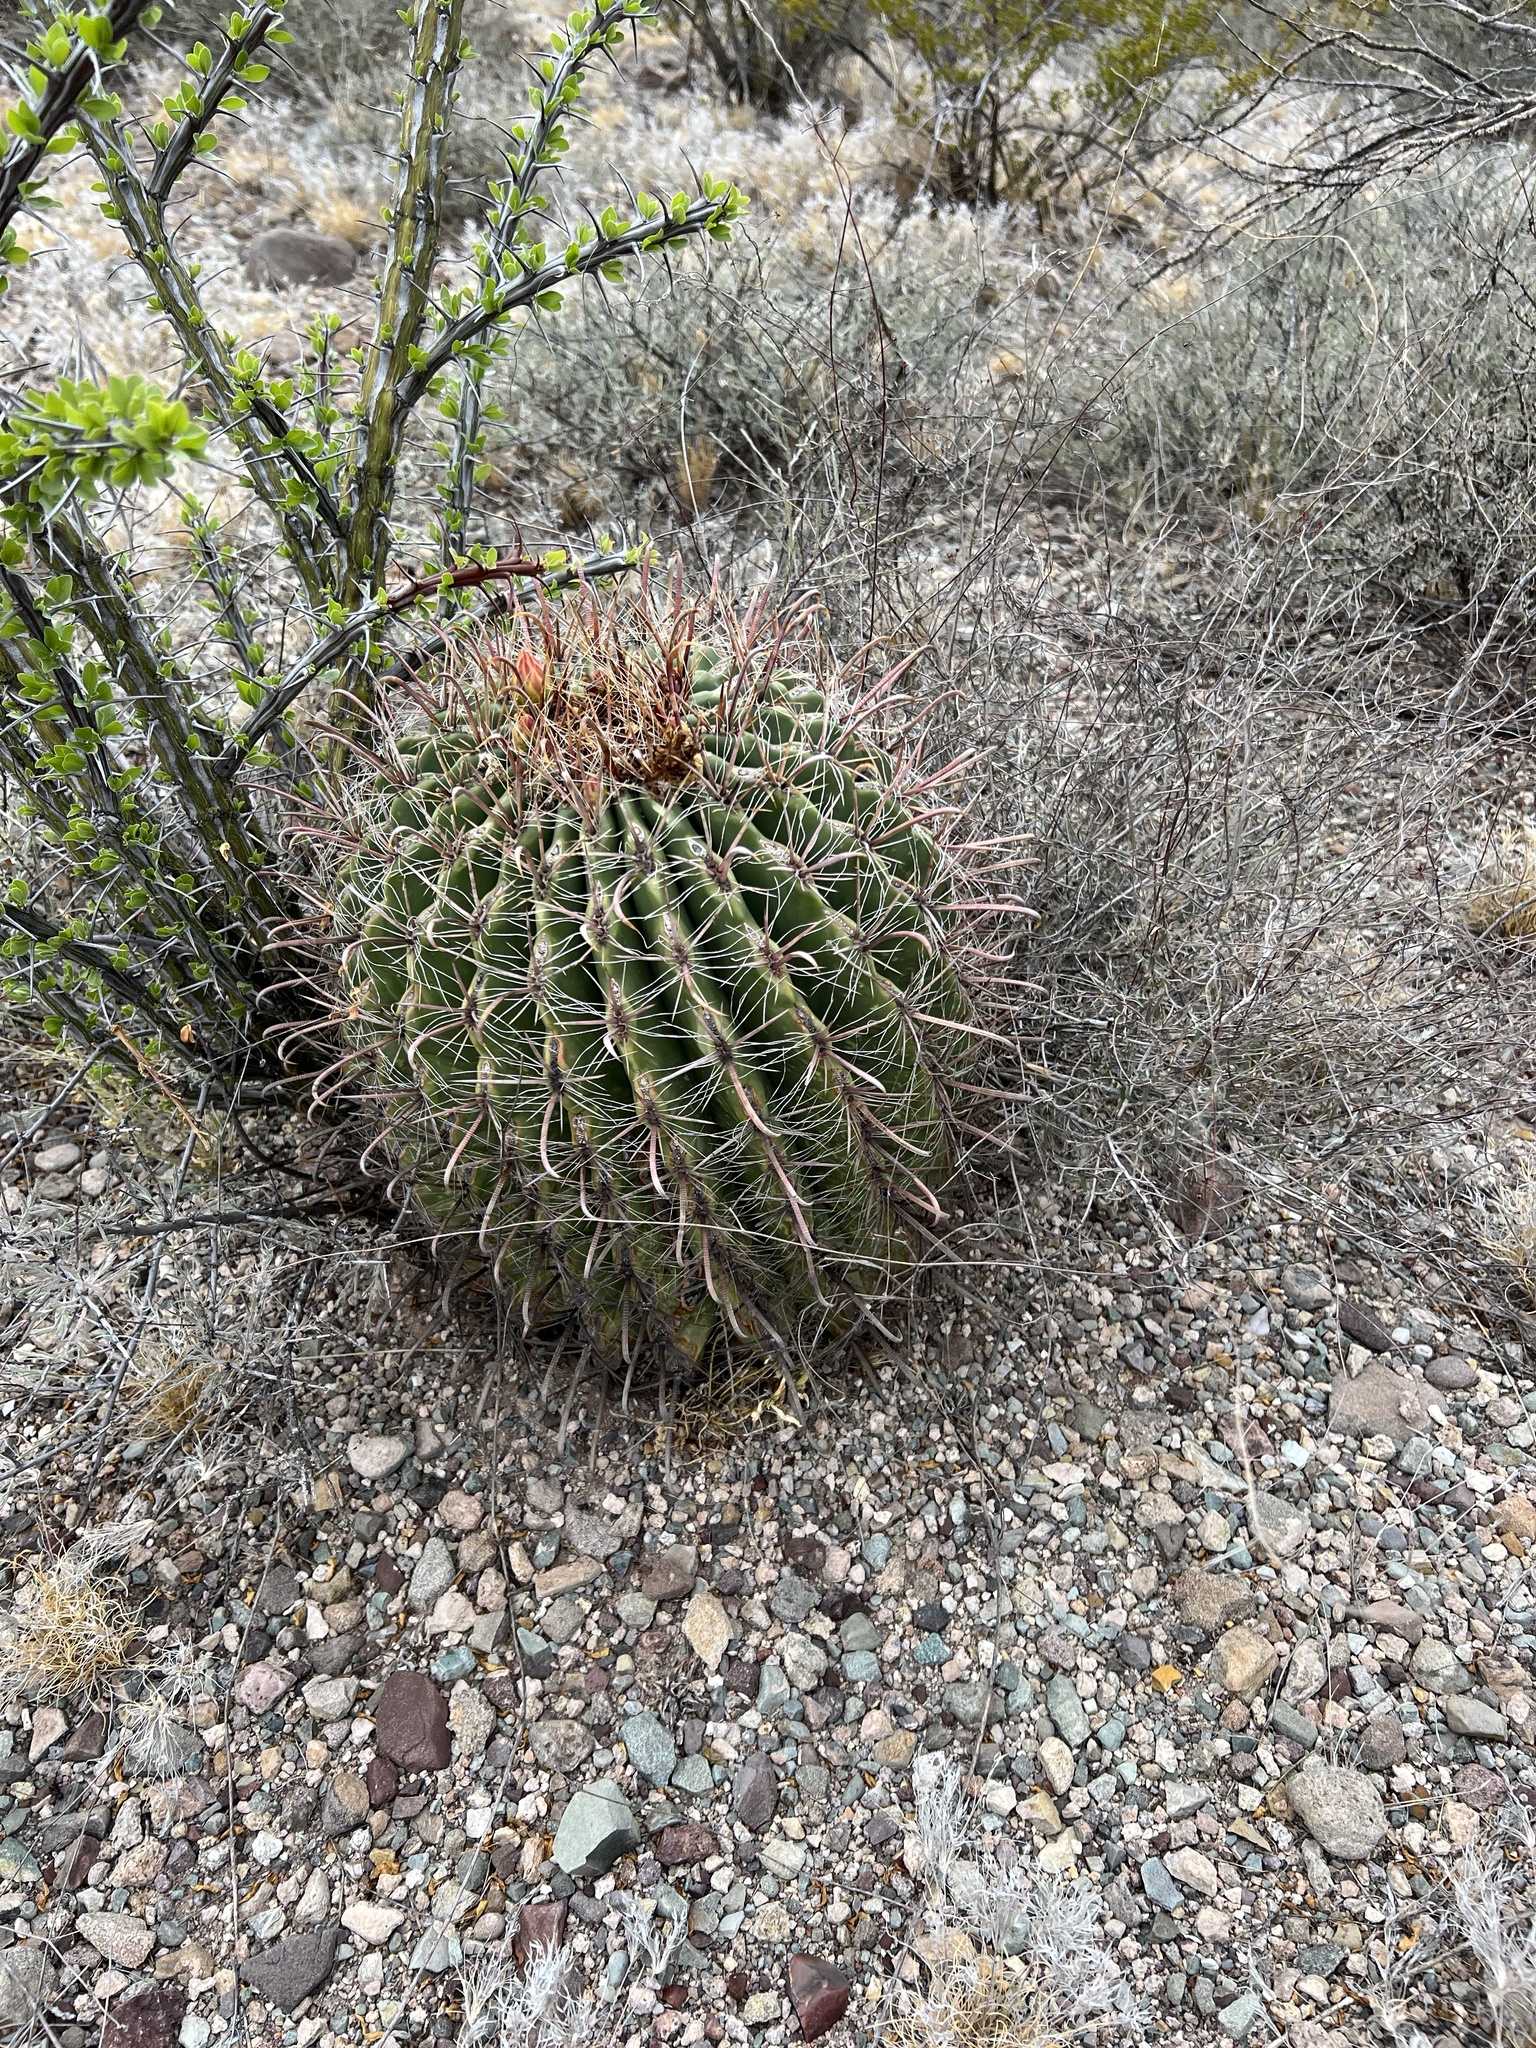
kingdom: Plantae
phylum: Tracheophyta
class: Magnoliopsida
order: Caryophyllales
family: Cactaceae
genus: Ferocactus
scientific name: Ferocactus wislizeni
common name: Candy barrel cactus
